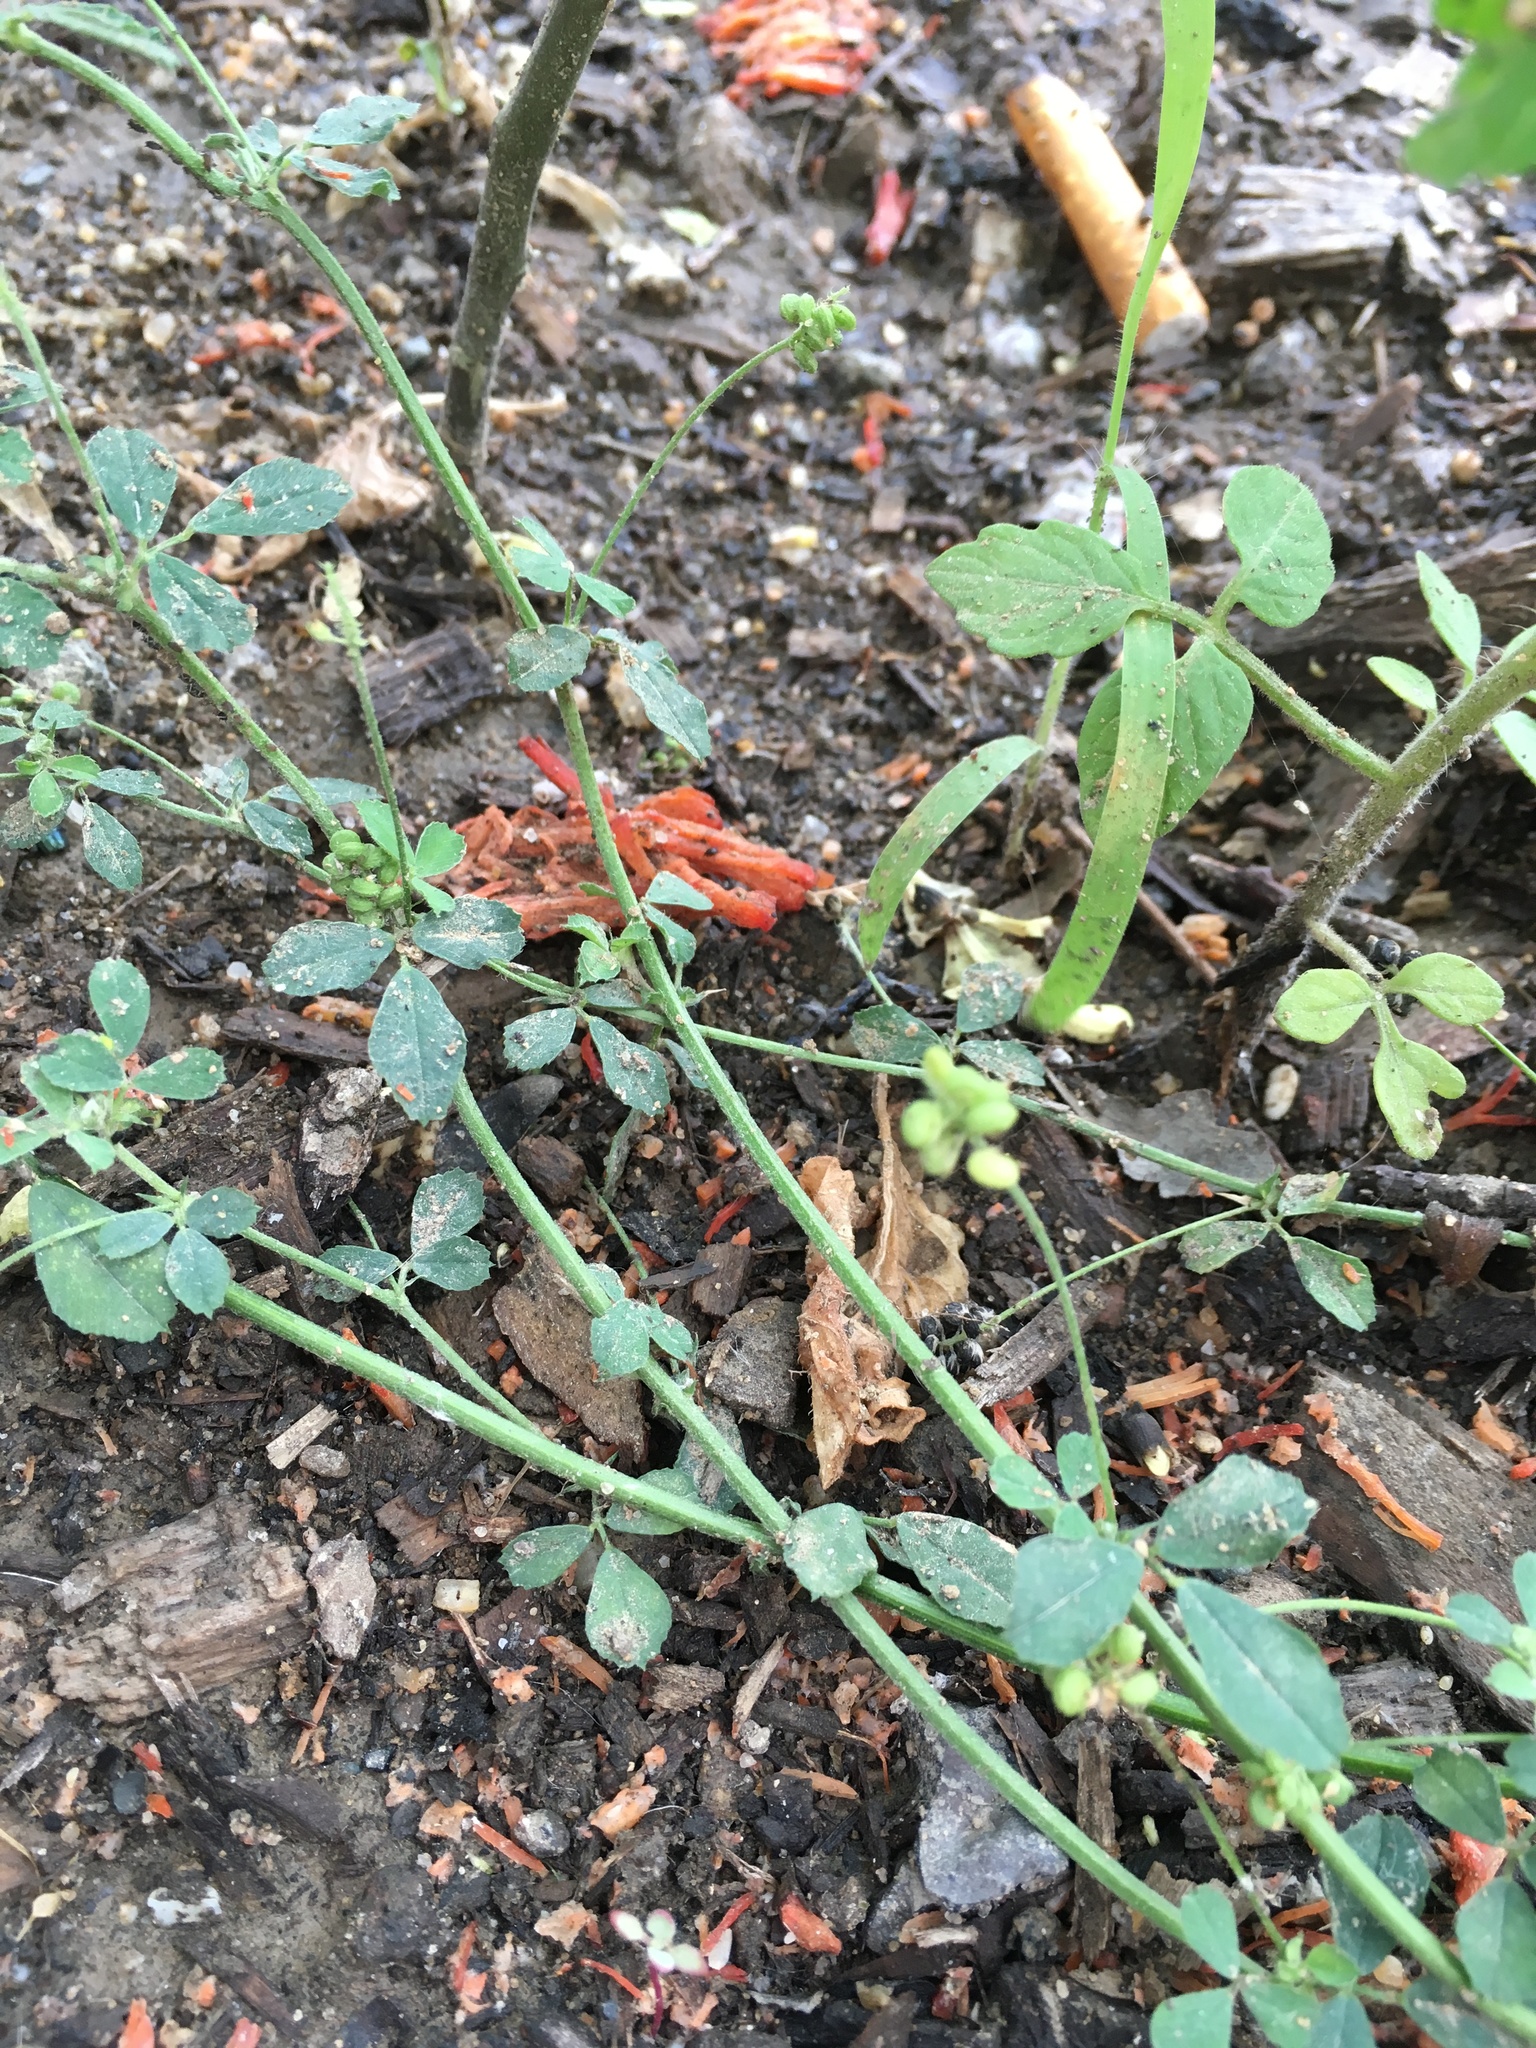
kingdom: Plantae
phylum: Tracheophyta
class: Magnoliopsida
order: Fabales
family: Fabaceae
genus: Medicago
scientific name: Medicago lupulina
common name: Black medick
